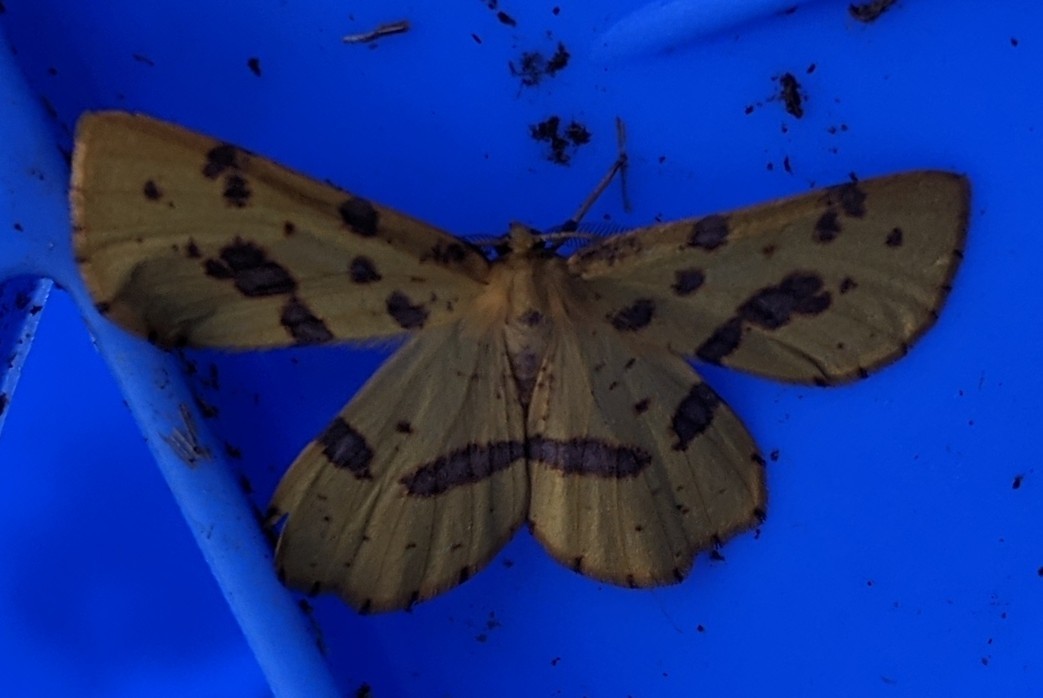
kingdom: Animalia
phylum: Arthropoda
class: Insecta
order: Lepidoptera
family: Geometridae
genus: Xanthotype
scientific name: Xanthotype
